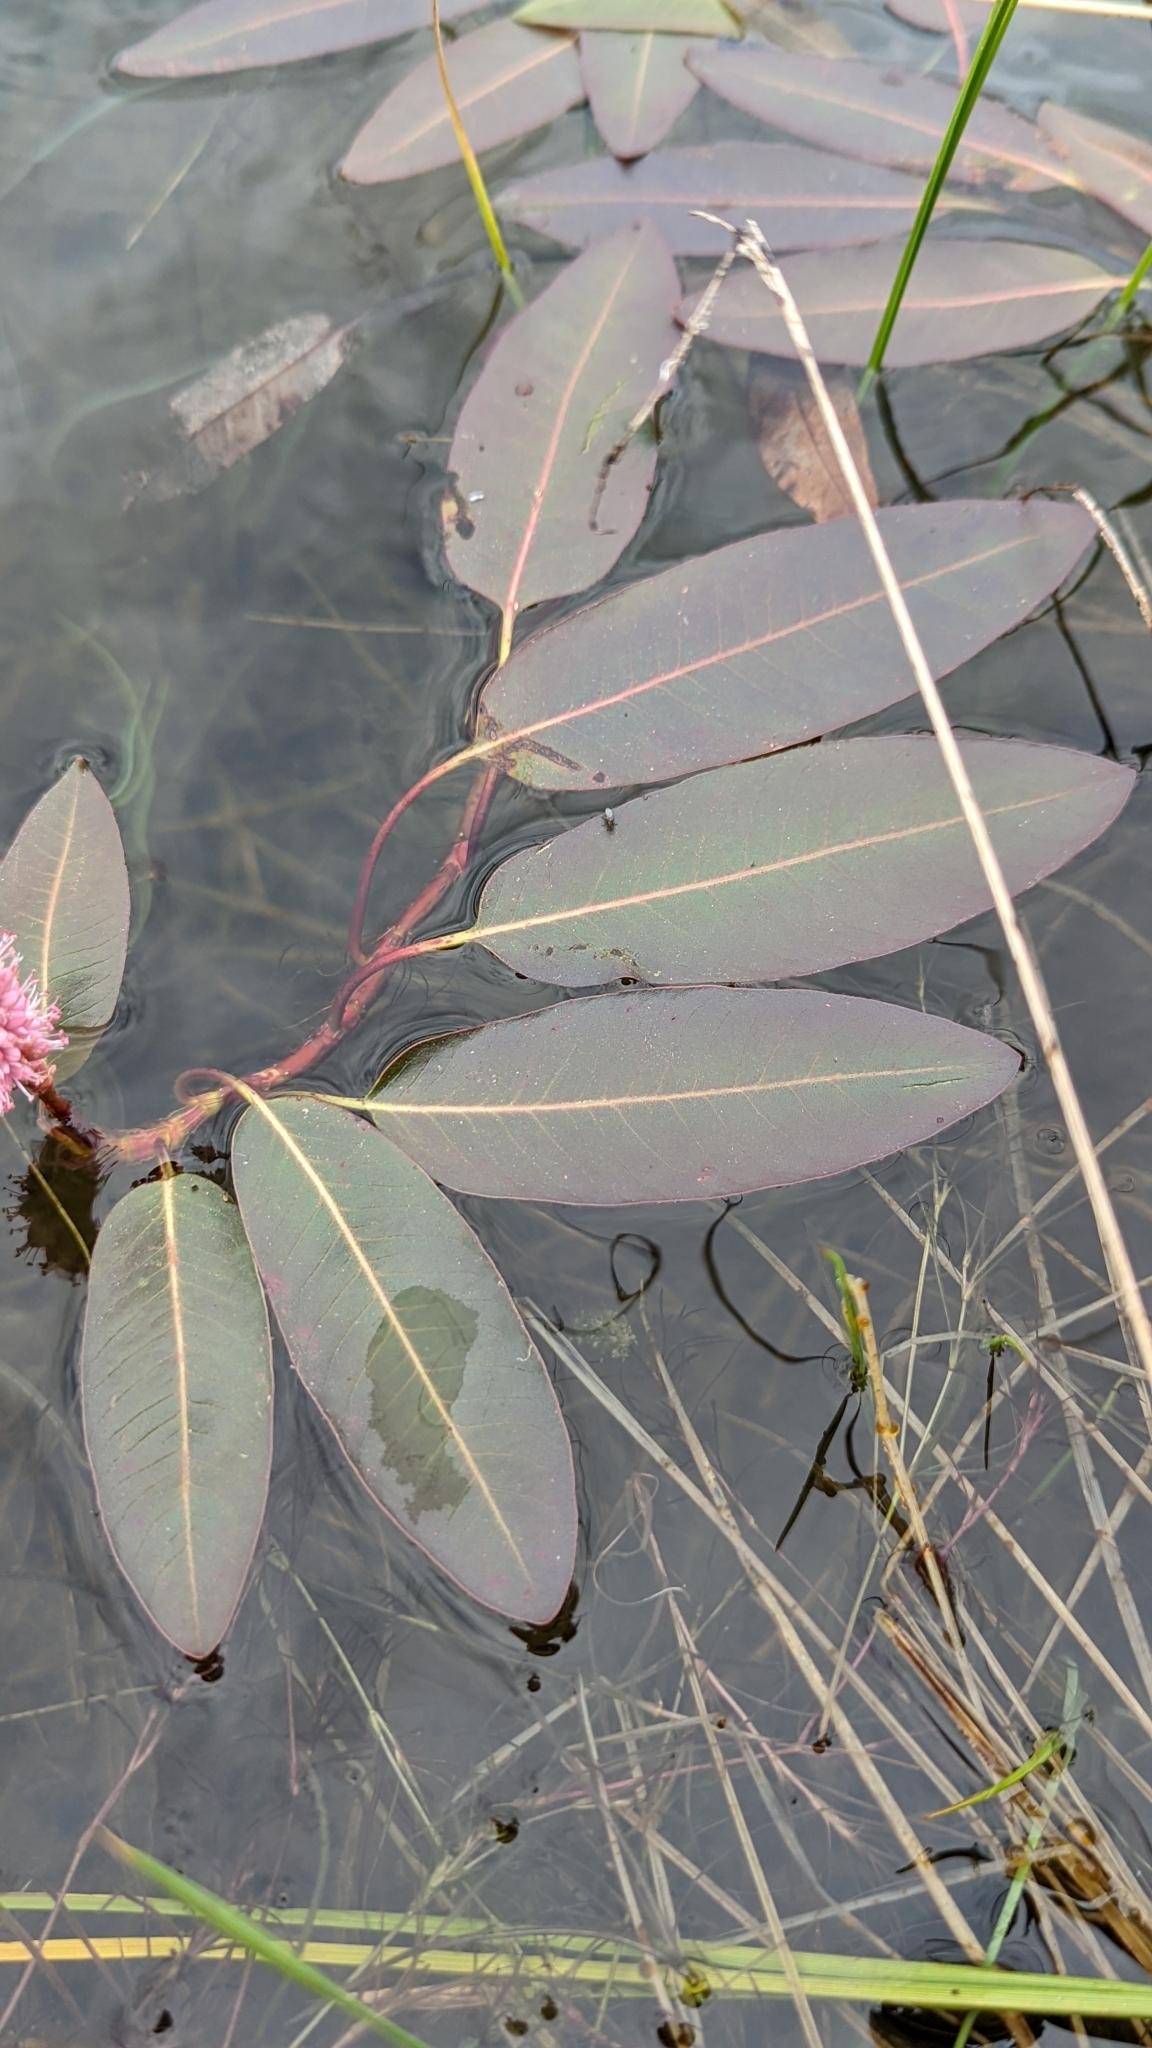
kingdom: Plantae
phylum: Tracheophyta
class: Magnoliopsida
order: Caryophyllales
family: Polygonaceae
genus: Persicaria
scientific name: Persicaria amphibia
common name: Amphibious bistort
